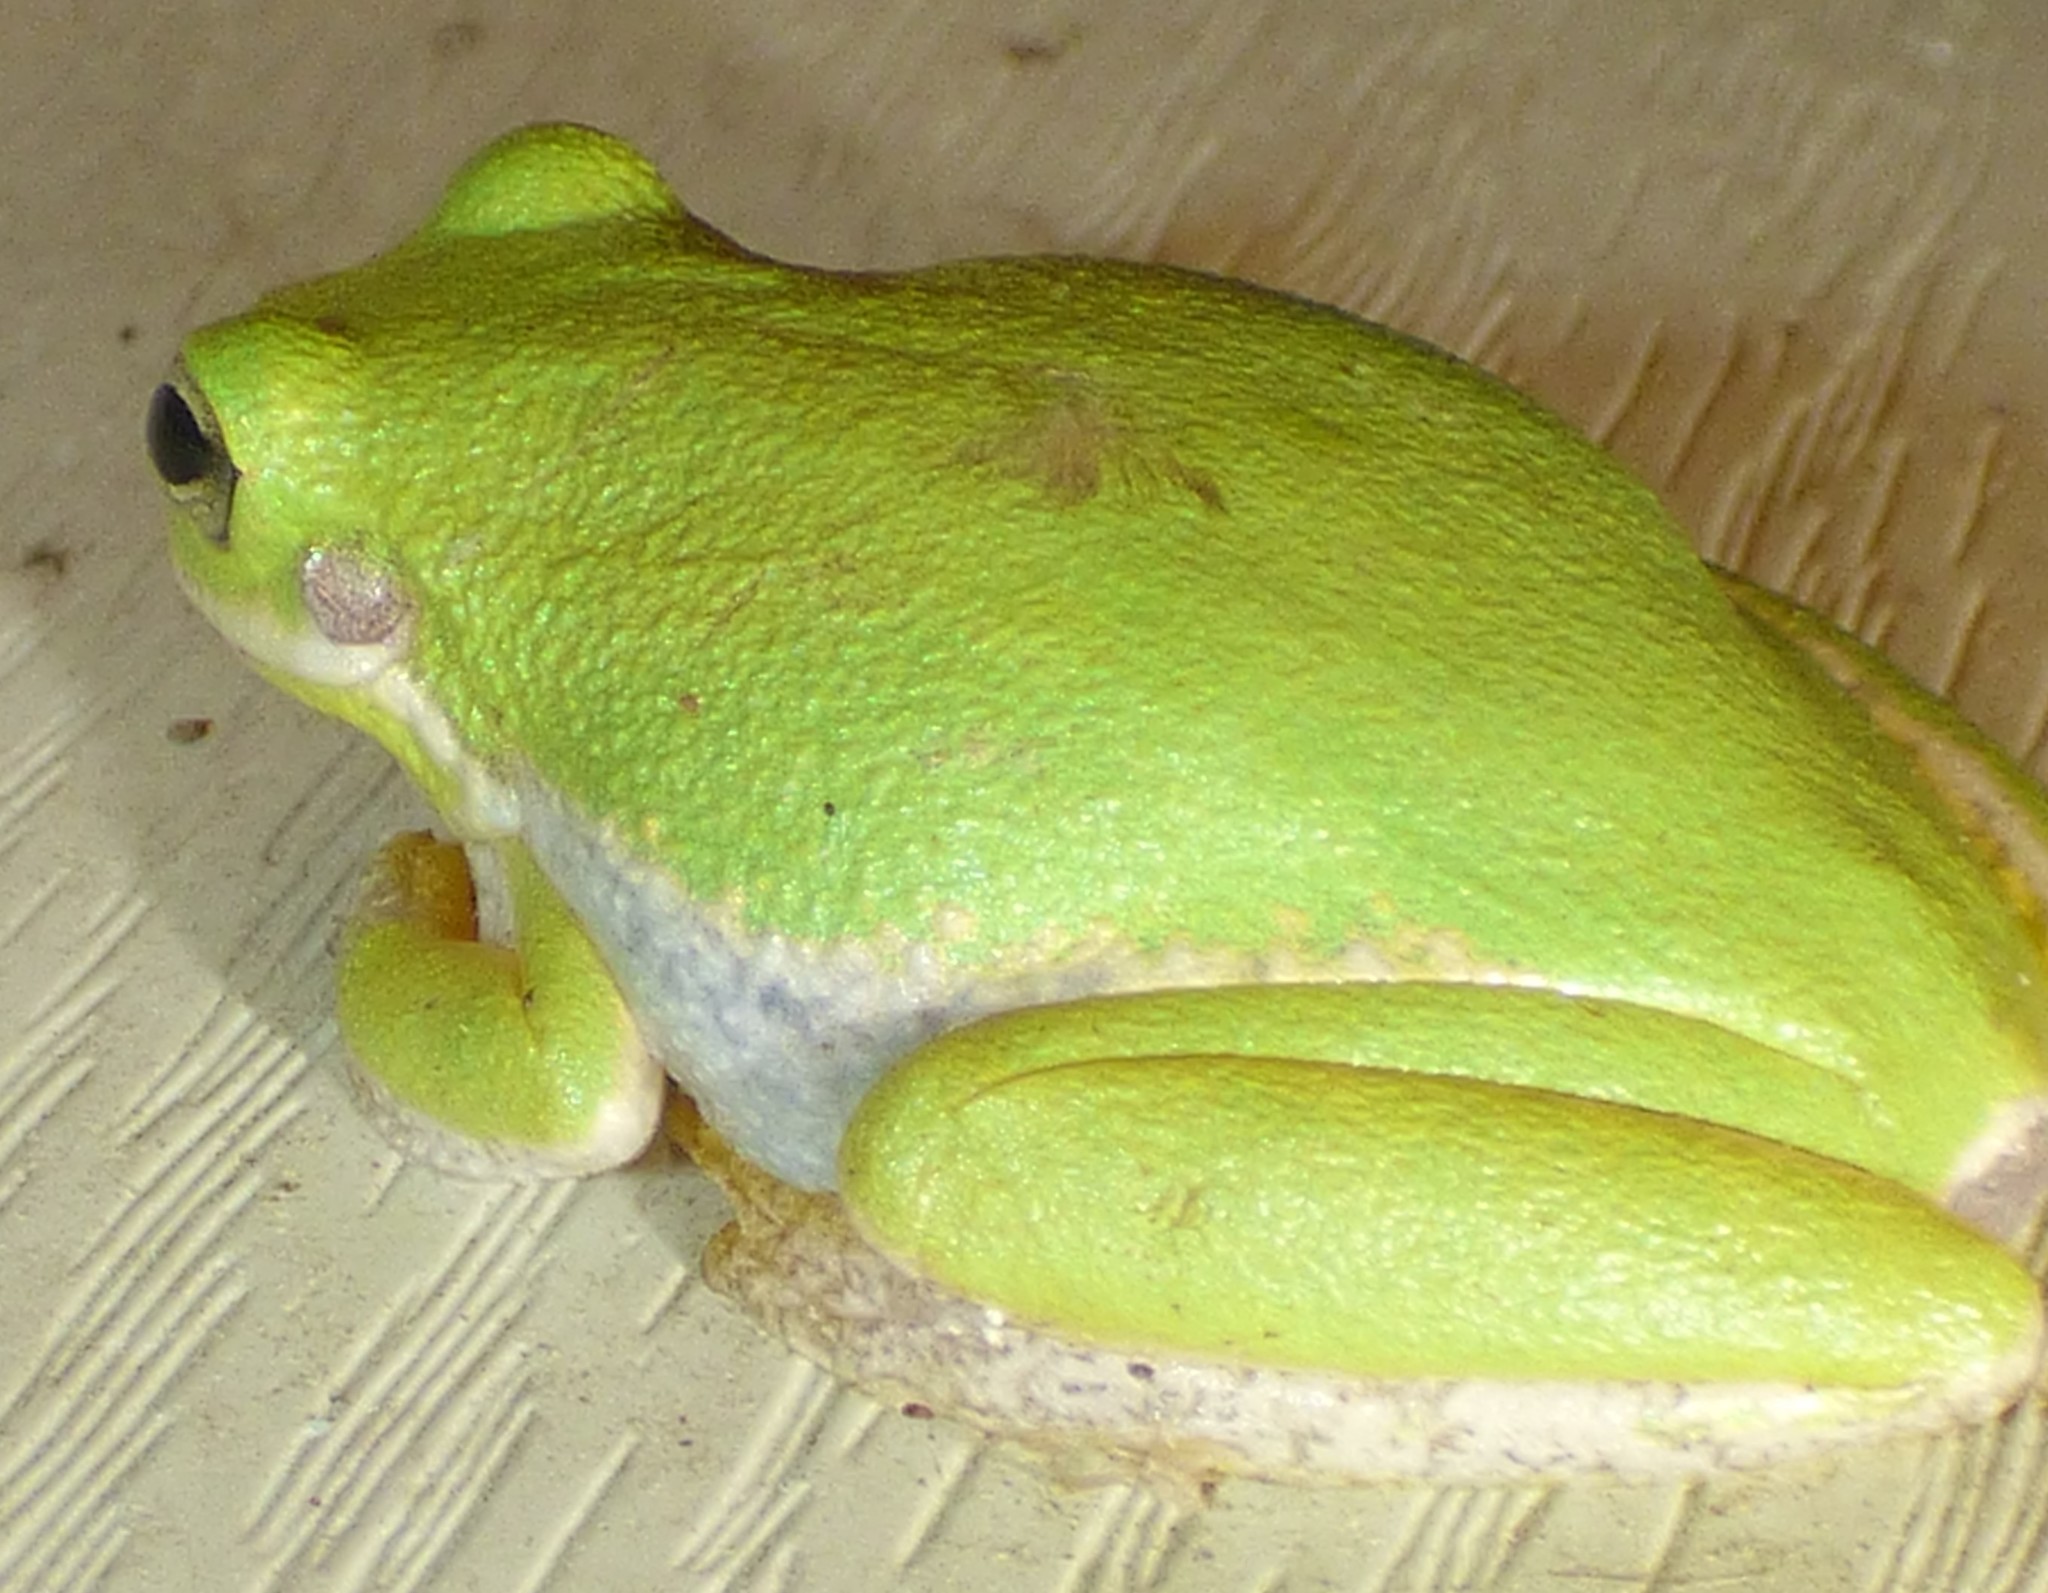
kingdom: Animalia
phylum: Chordata
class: Amphibia
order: Anura
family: Hylidae
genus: Dryophytes
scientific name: Dryophytes squirellus
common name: Squirrel treefrog
